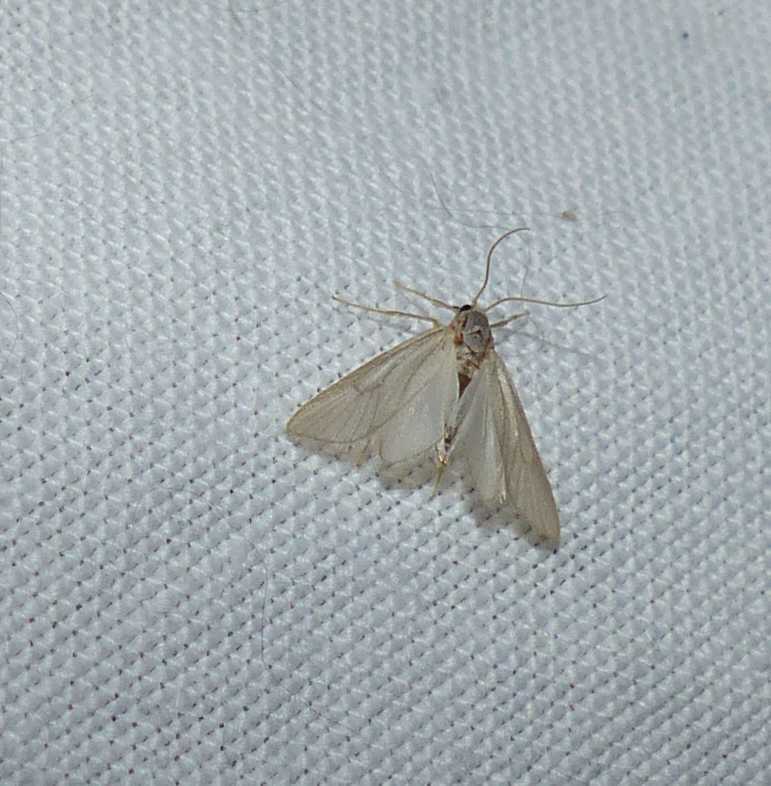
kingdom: Animalia
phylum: Arthropoda
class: Insecta
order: Lepidoptera
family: Crambidae
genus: Acentria
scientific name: Acentria ephemerella
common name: European water moth
